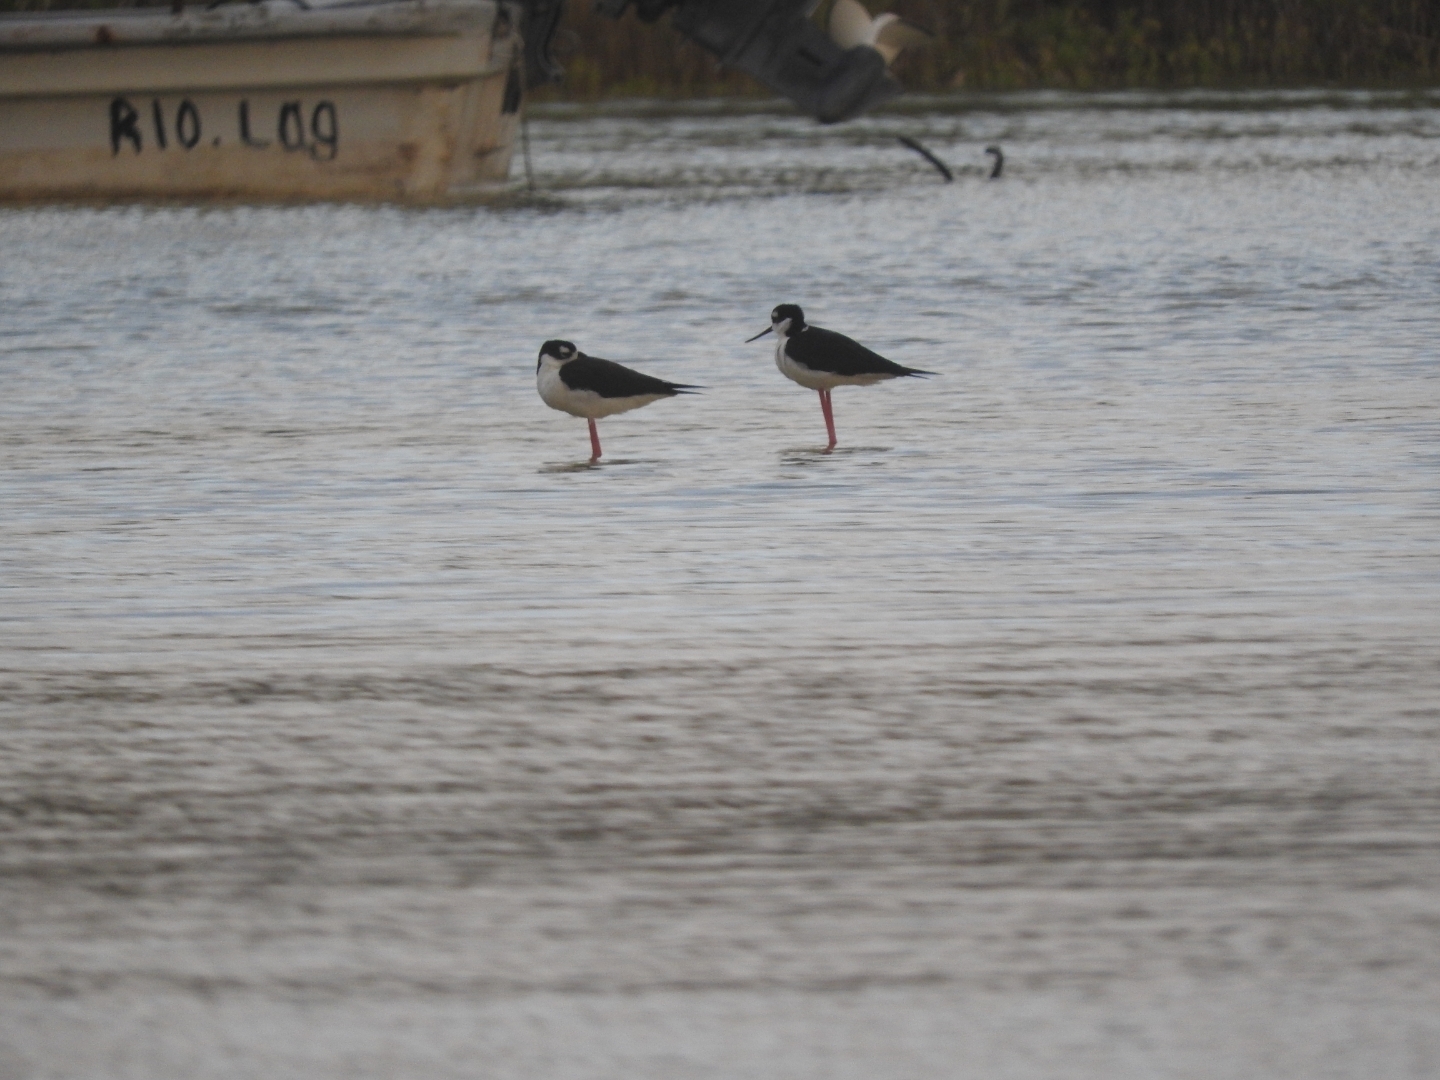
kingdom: Animalia
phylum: Chordata
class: Aves
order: Charadriiformes
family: Recurvirostridae
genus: Himantopus
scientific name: Himantopus mexicanus
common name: Black-necked stilt
